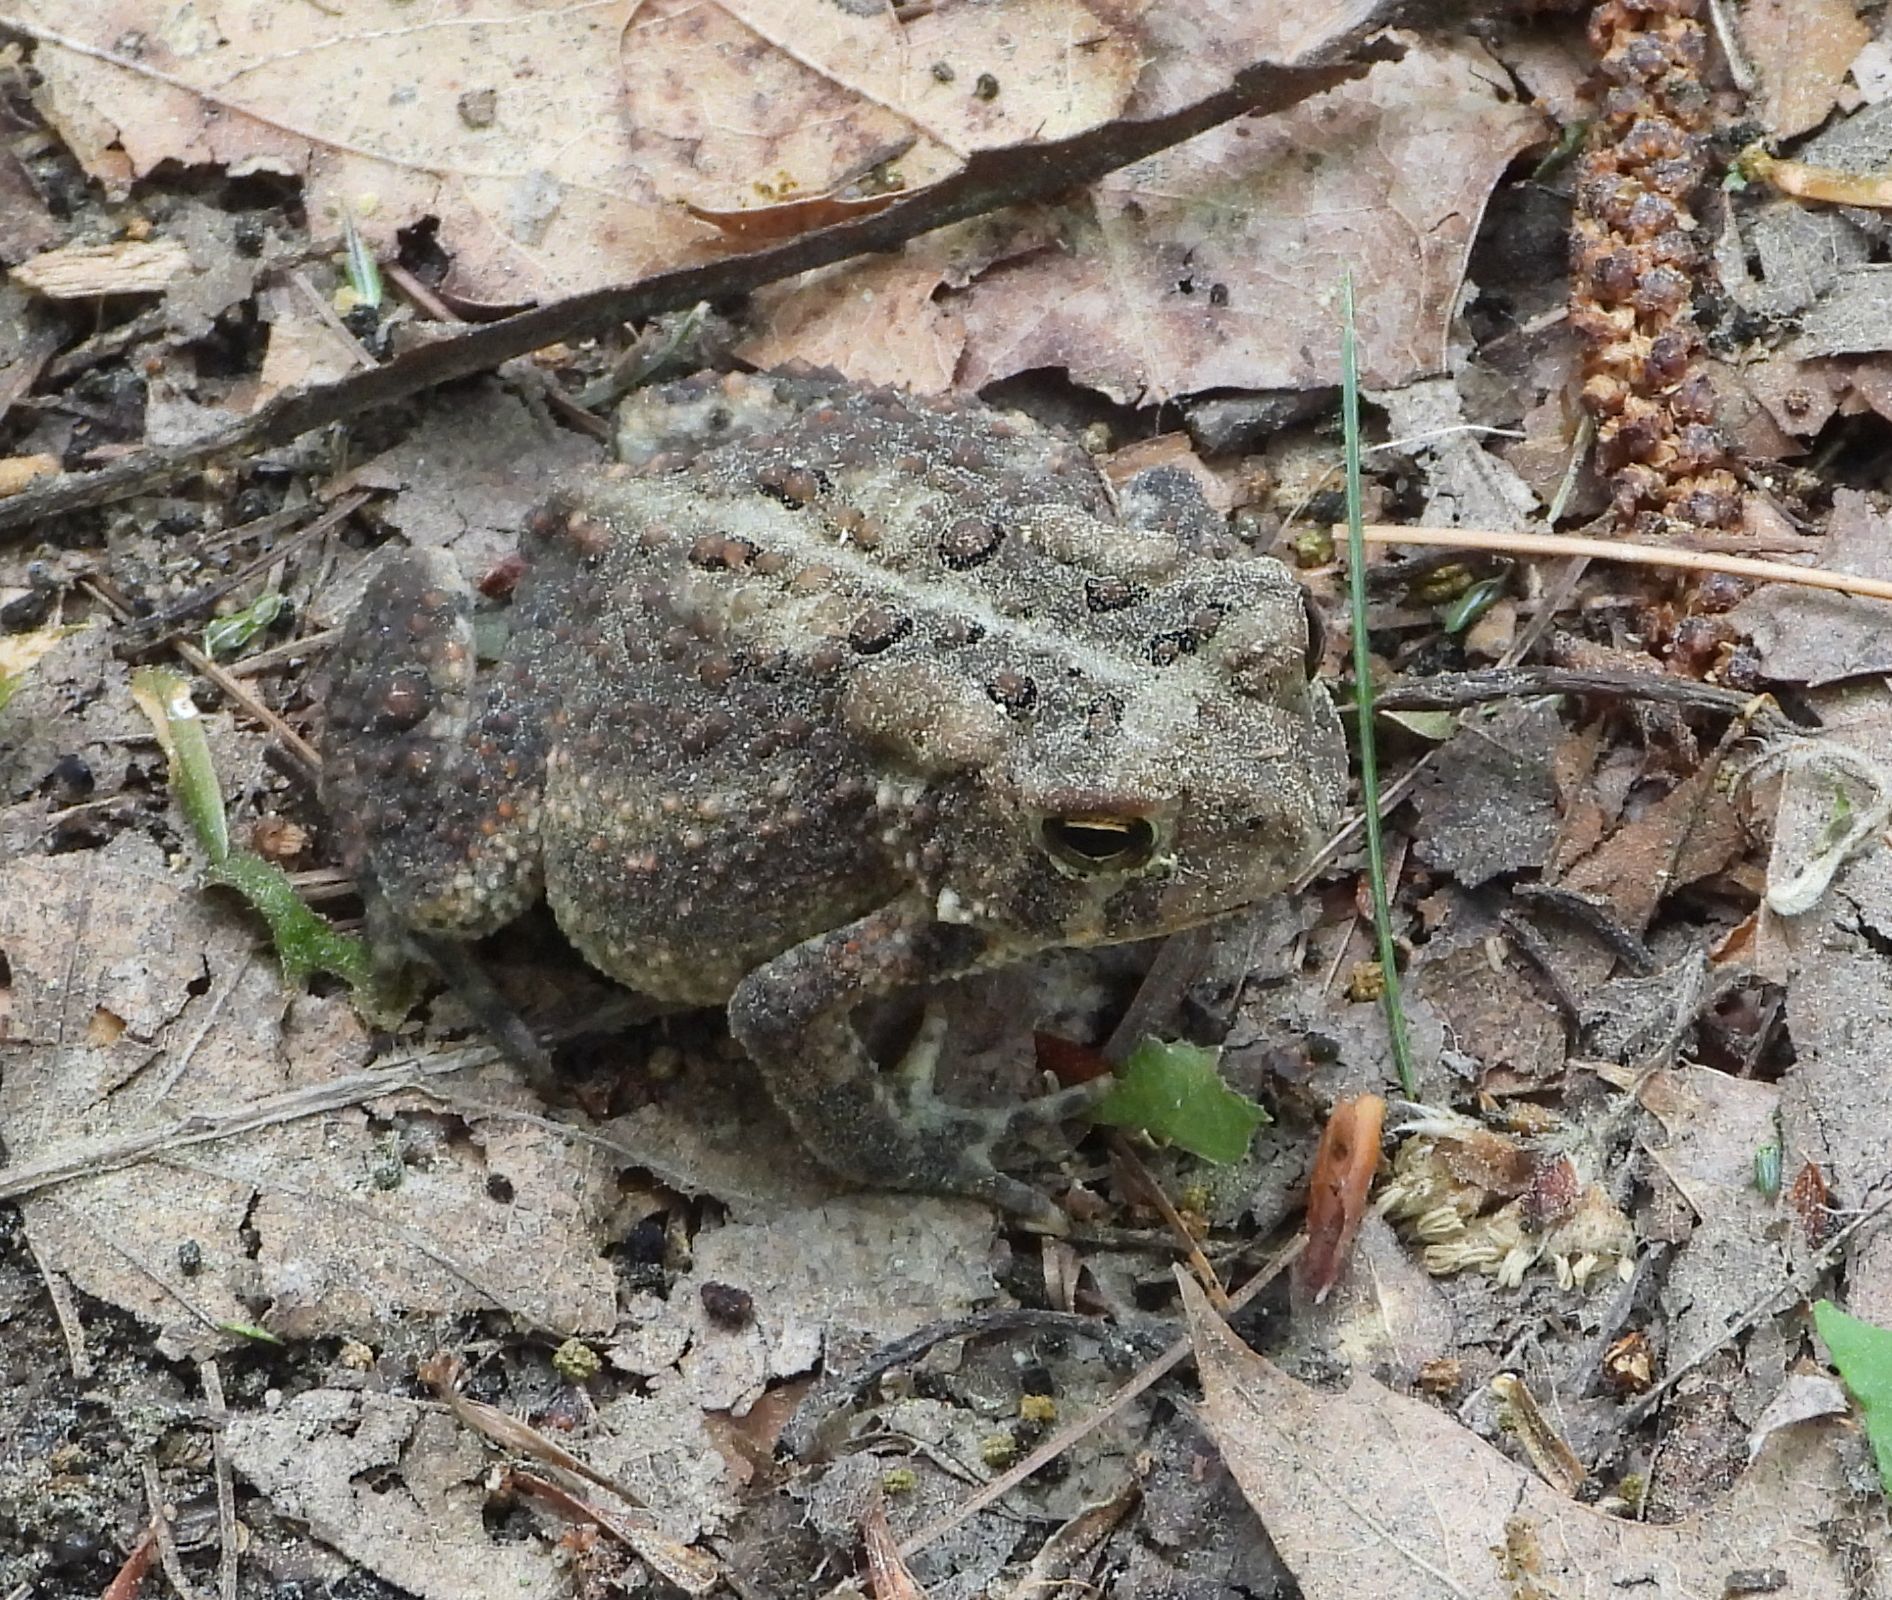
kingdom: Animalia
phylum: Chordata
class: Amphibia
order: Anura
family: Bufonidae
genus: Anaxyrus
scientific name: Anaxyrus americanus
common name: American toad
